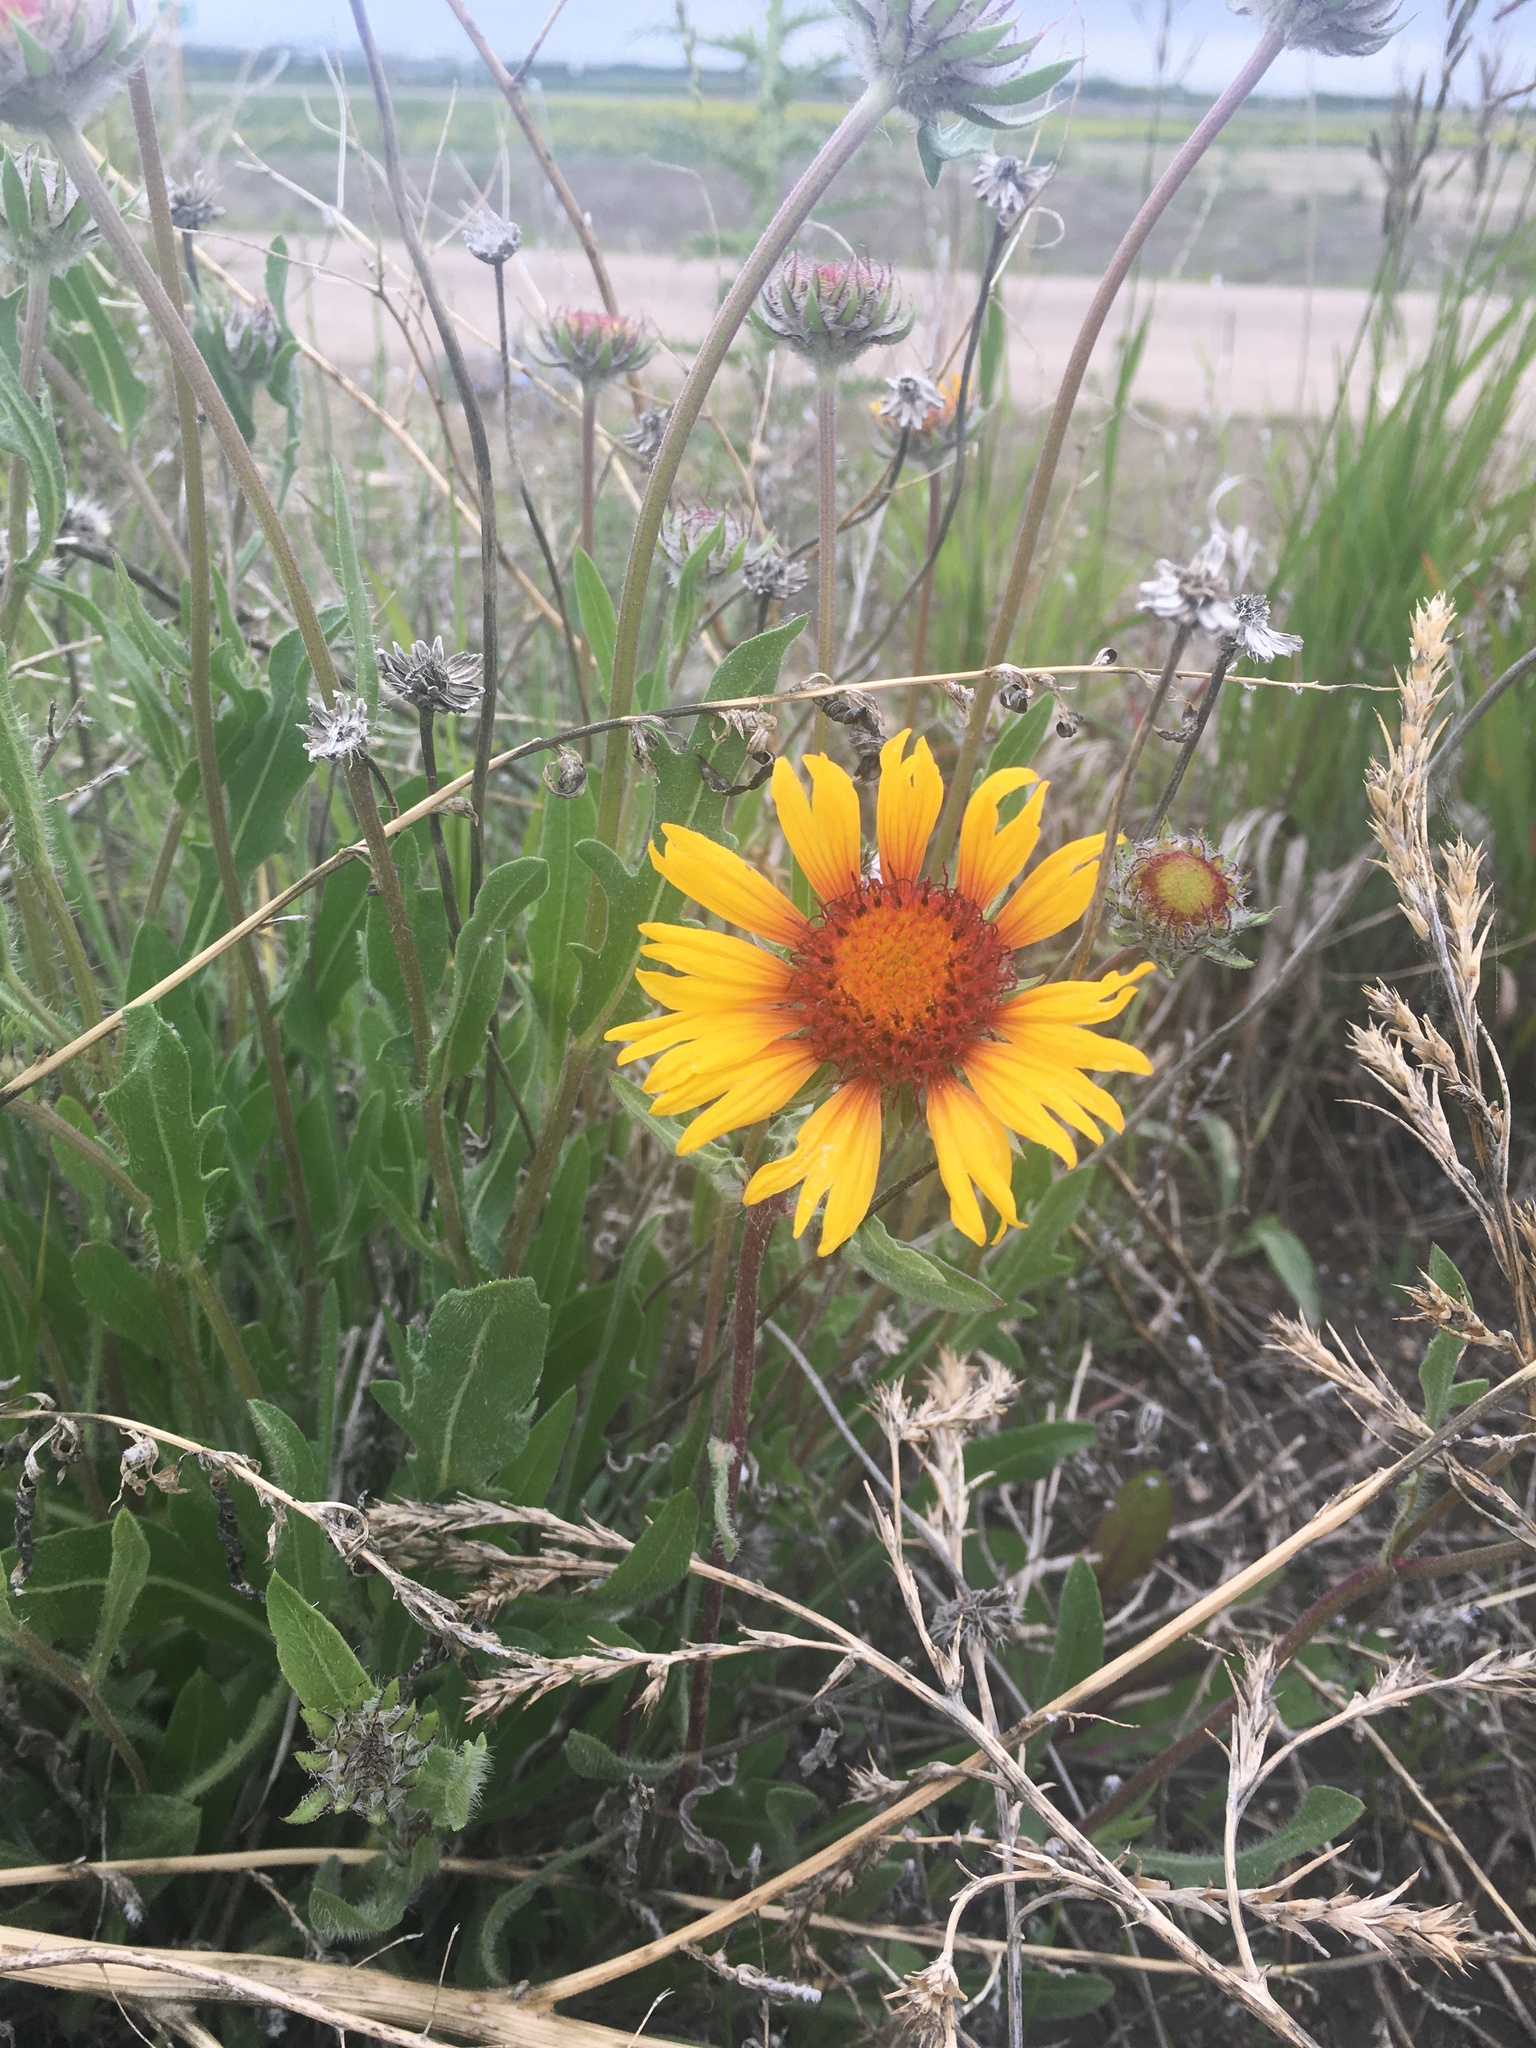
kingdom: Plantae
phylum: Tracheophyta
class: Magnoliopsida
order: Asterales
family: Asteraceae
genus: Gaillardia
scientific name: Gaillardia aristata
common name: Blanket-flower
